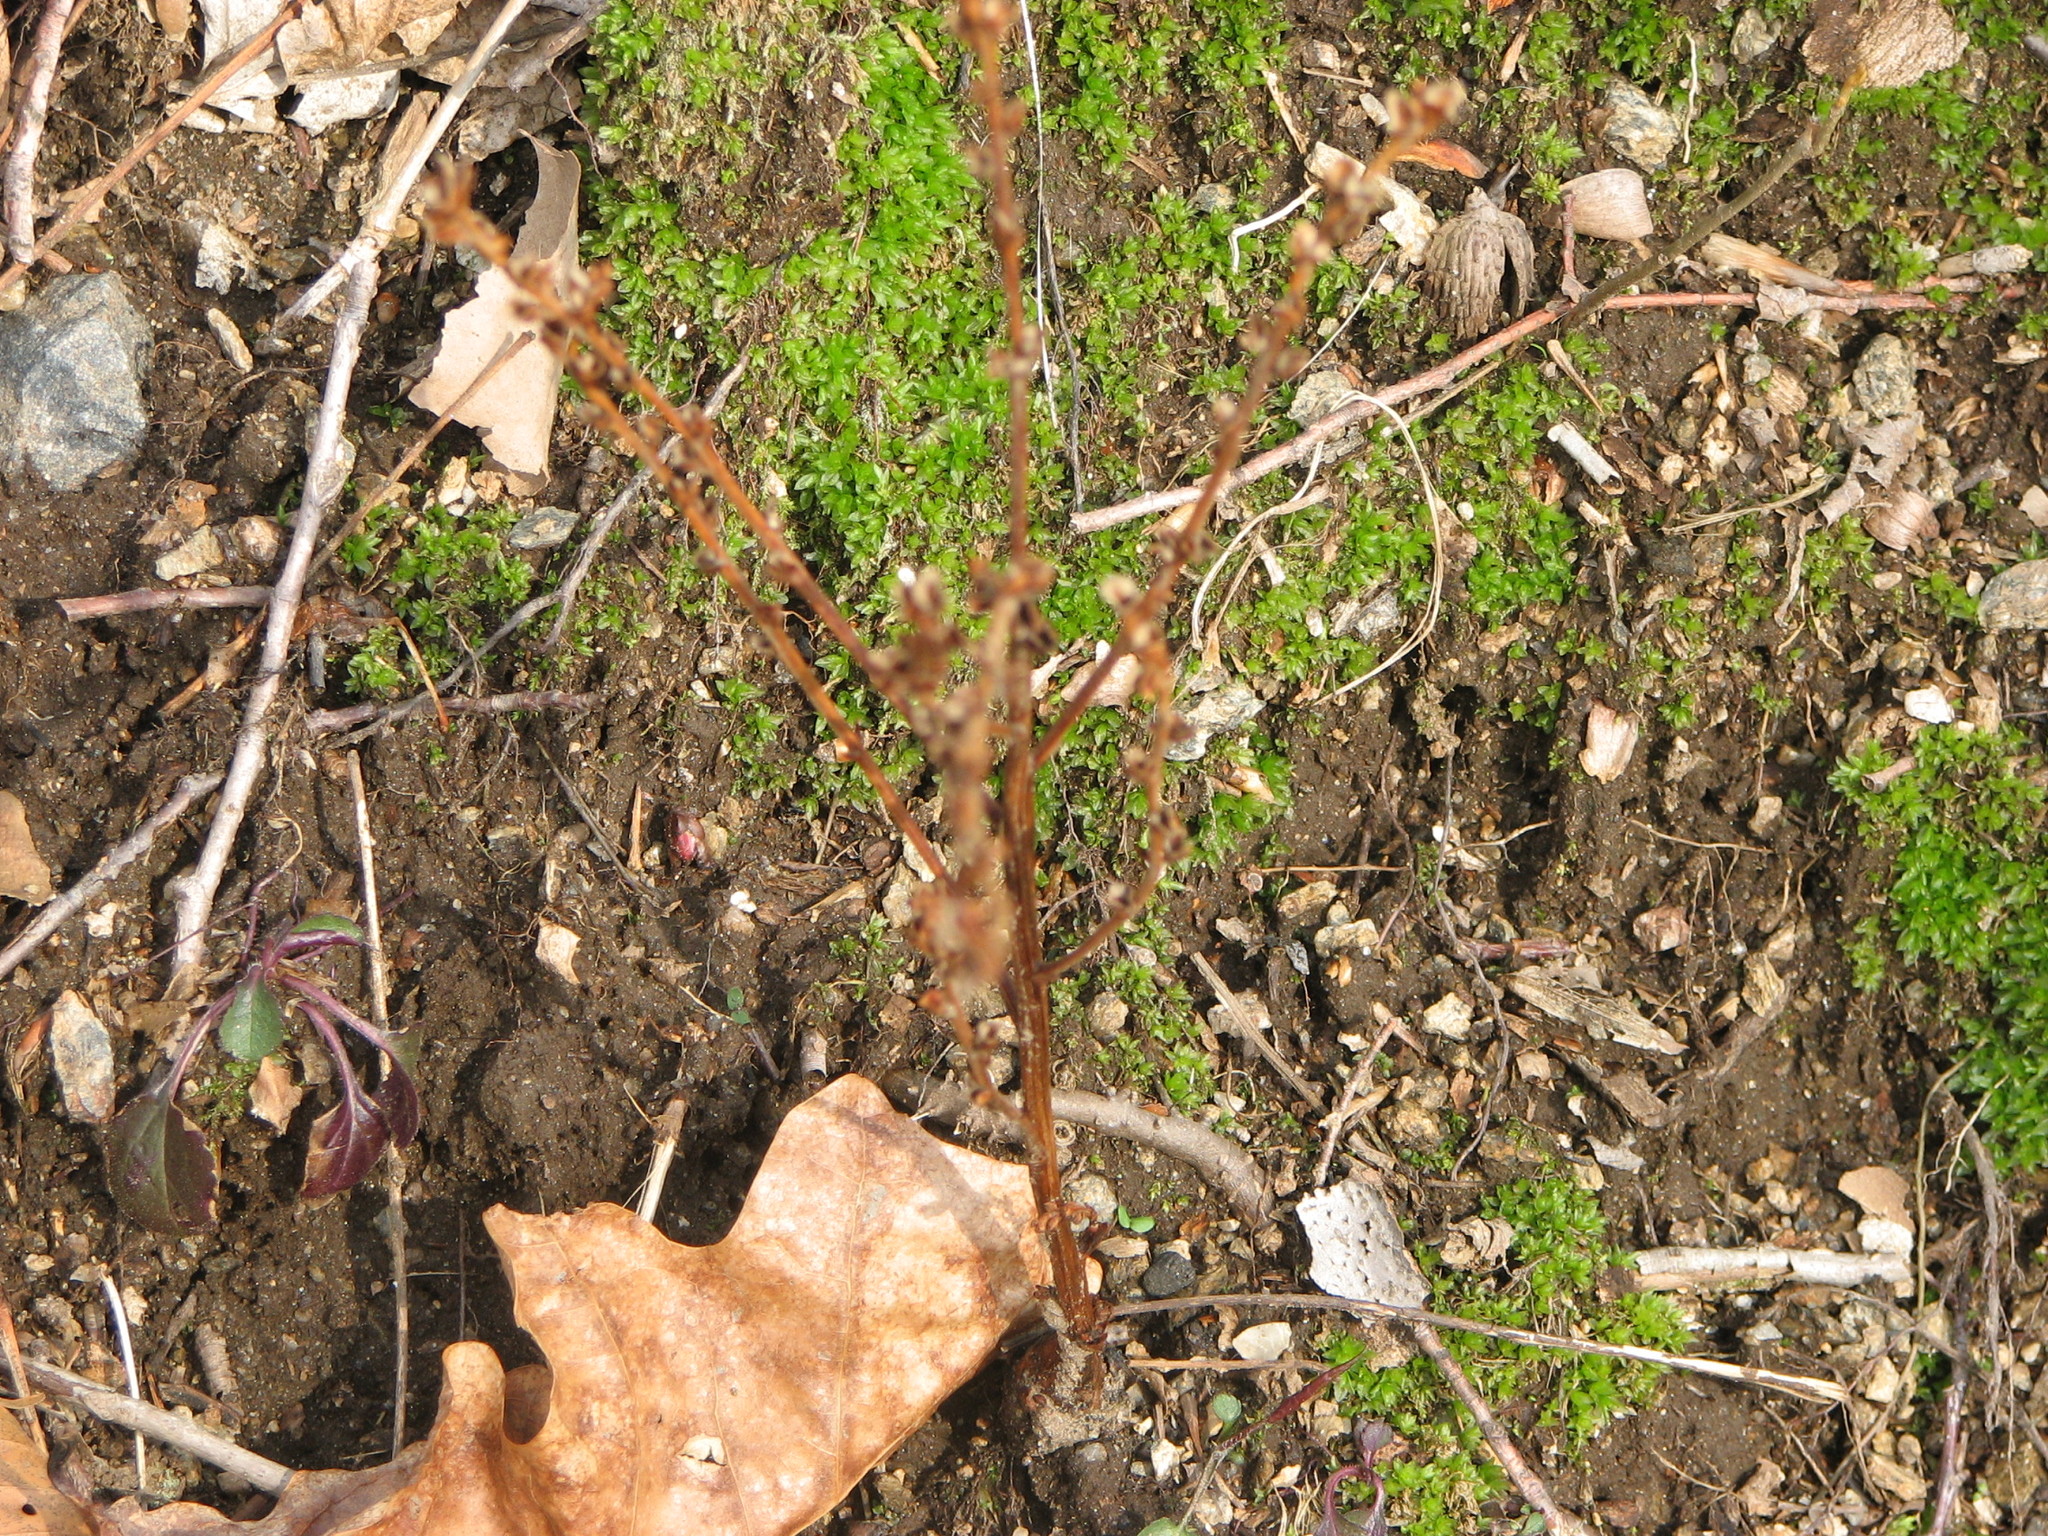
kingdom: Plantae
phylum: Tracheophyta
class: Magnoliopsida
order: Lamiales
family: Orobanchaceae
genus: Epifagus
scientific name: Epifagus virginiana
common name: Beechdrops
